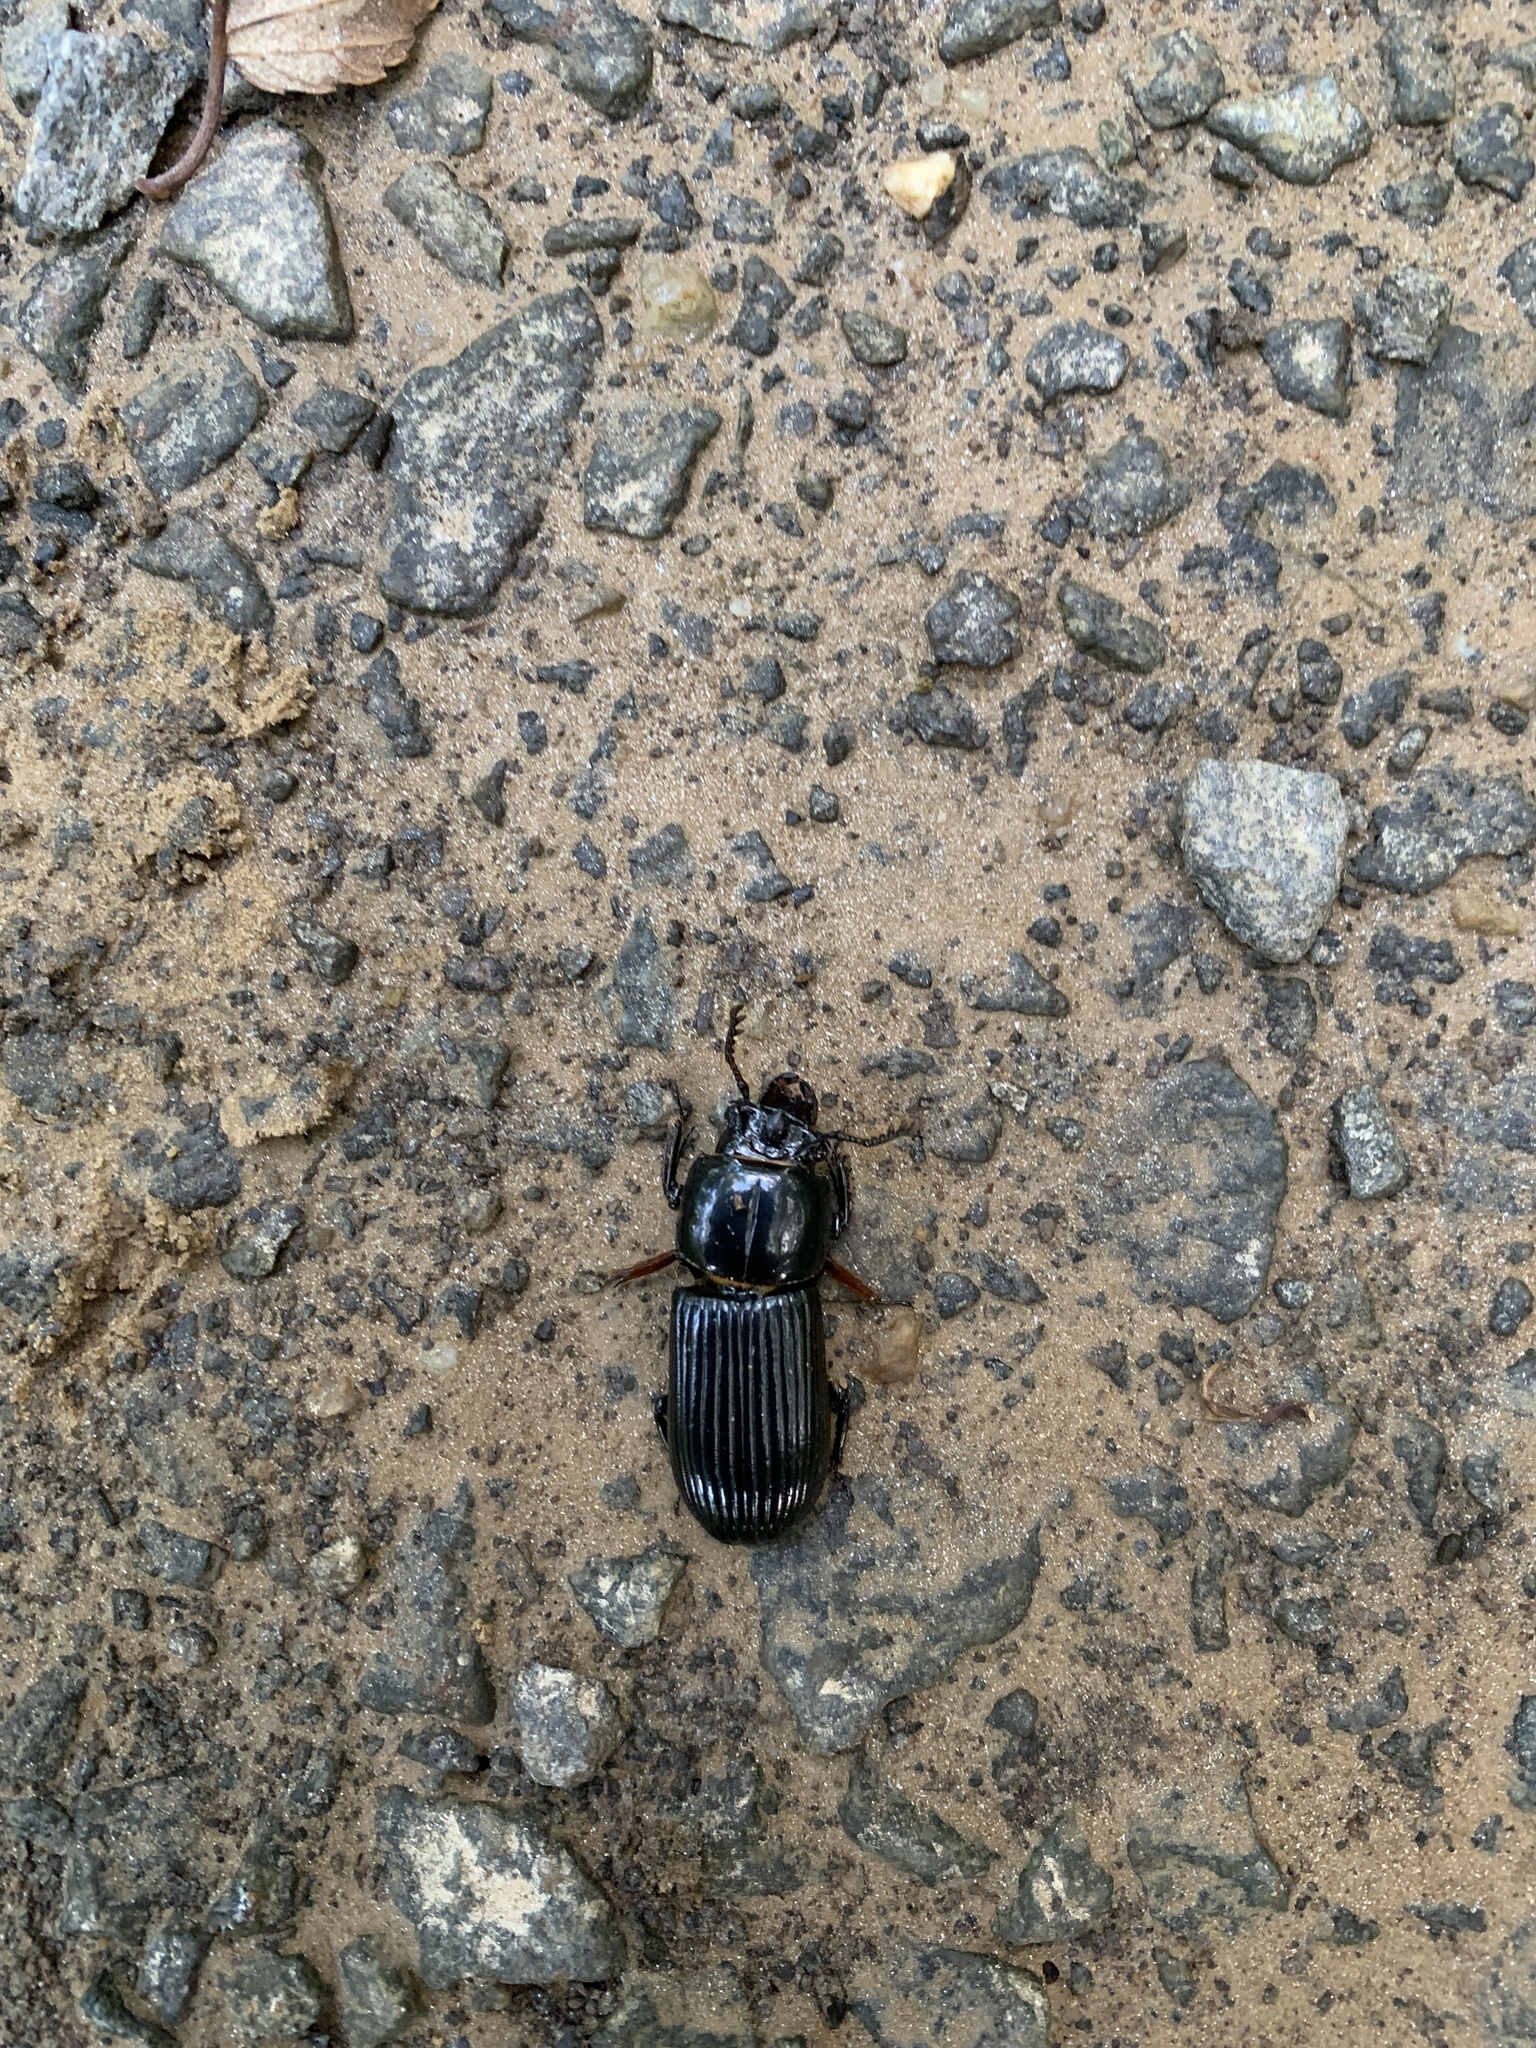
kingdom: Animalia
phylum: Arthropoda
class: Insecta
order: Coleoptera
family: Passalidae
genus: Odontotaenius
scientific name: Odontotaenius disjunctus
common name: Patent leather beetle
